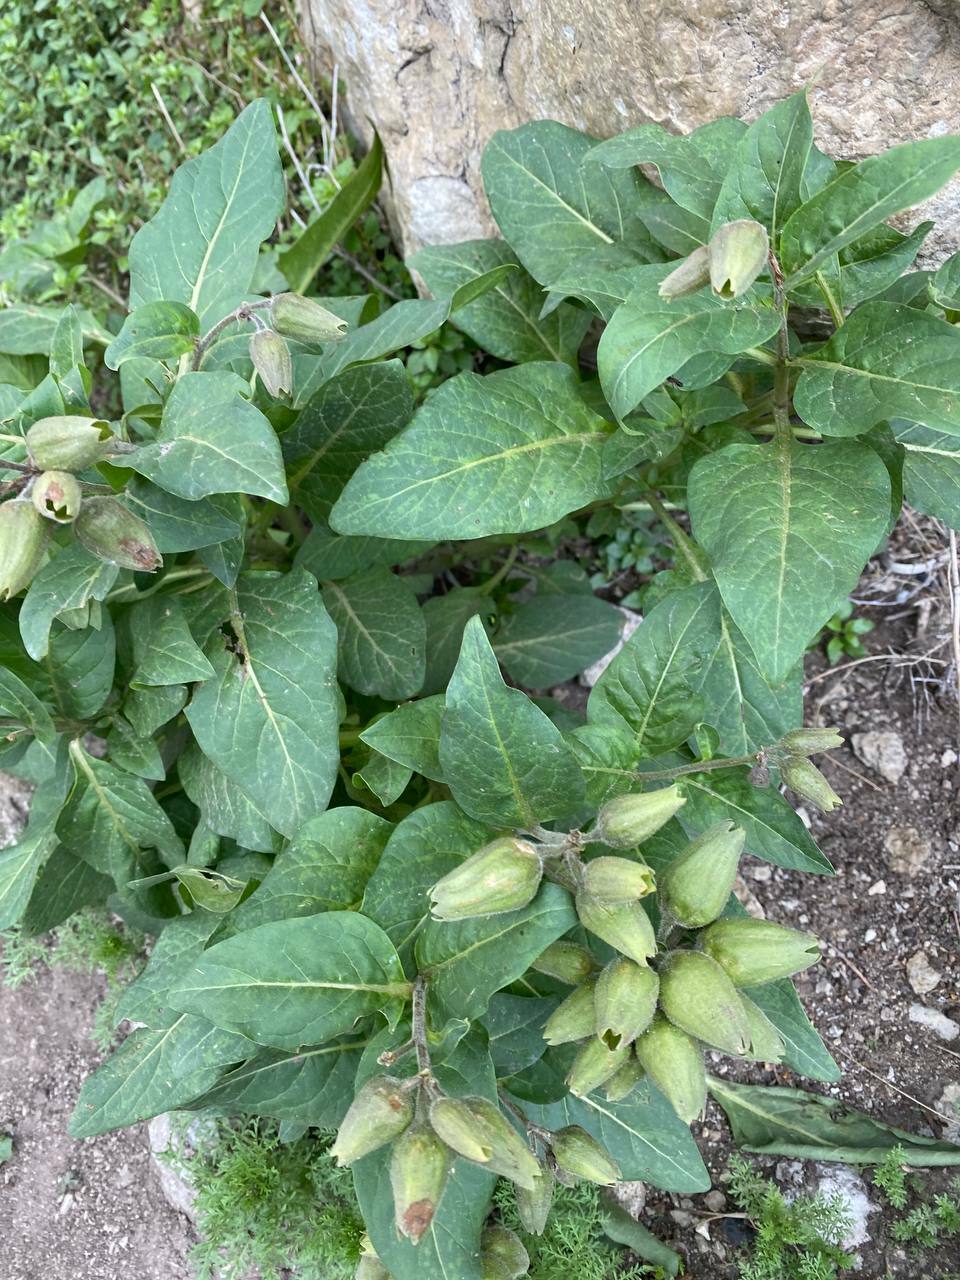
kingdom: Plantae
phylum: Tracheophyta
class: Magnoliopsida
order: Solanales
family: Solanaceae
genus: Physochlaina
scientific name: Physochlaina orientalis
